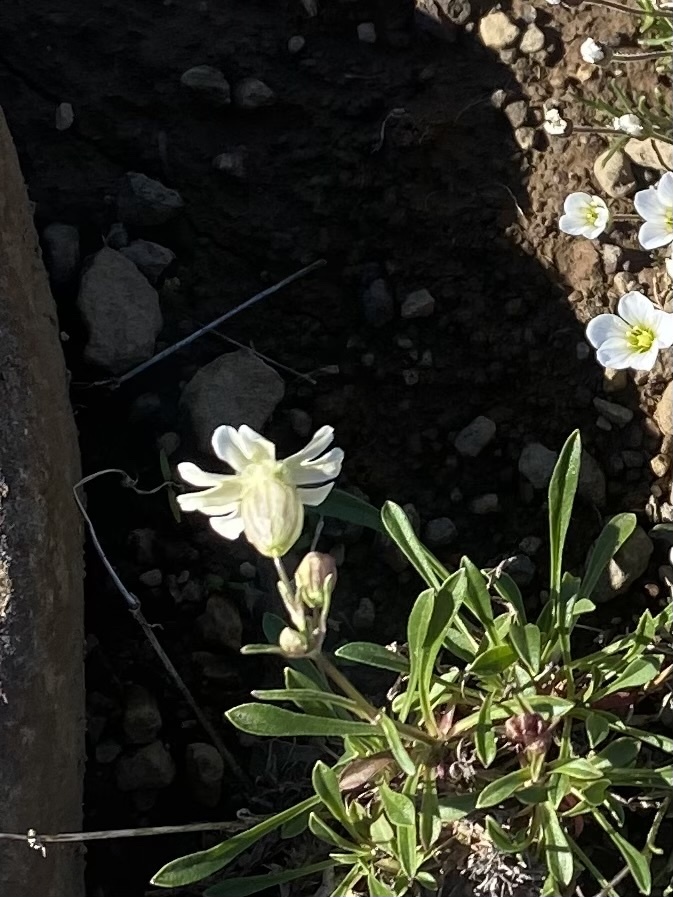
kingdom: Plantae
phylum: Tracheophyta
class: Magnoliopsida
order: Caryophyllales
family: Caryophyllaceae
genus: Silene
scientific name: Silene chamarensis
